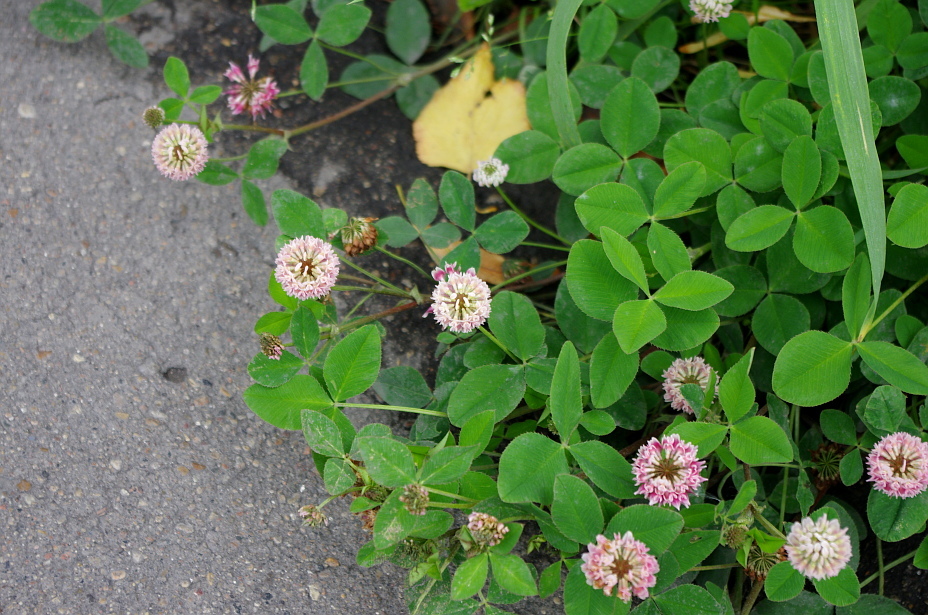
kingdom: Plantae
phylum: Tracheophyta
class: Magnoliopsida
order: Fabales
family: Fabaceae
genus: Trifolium
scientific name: Trifolium hybridum
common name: Alsike clover
